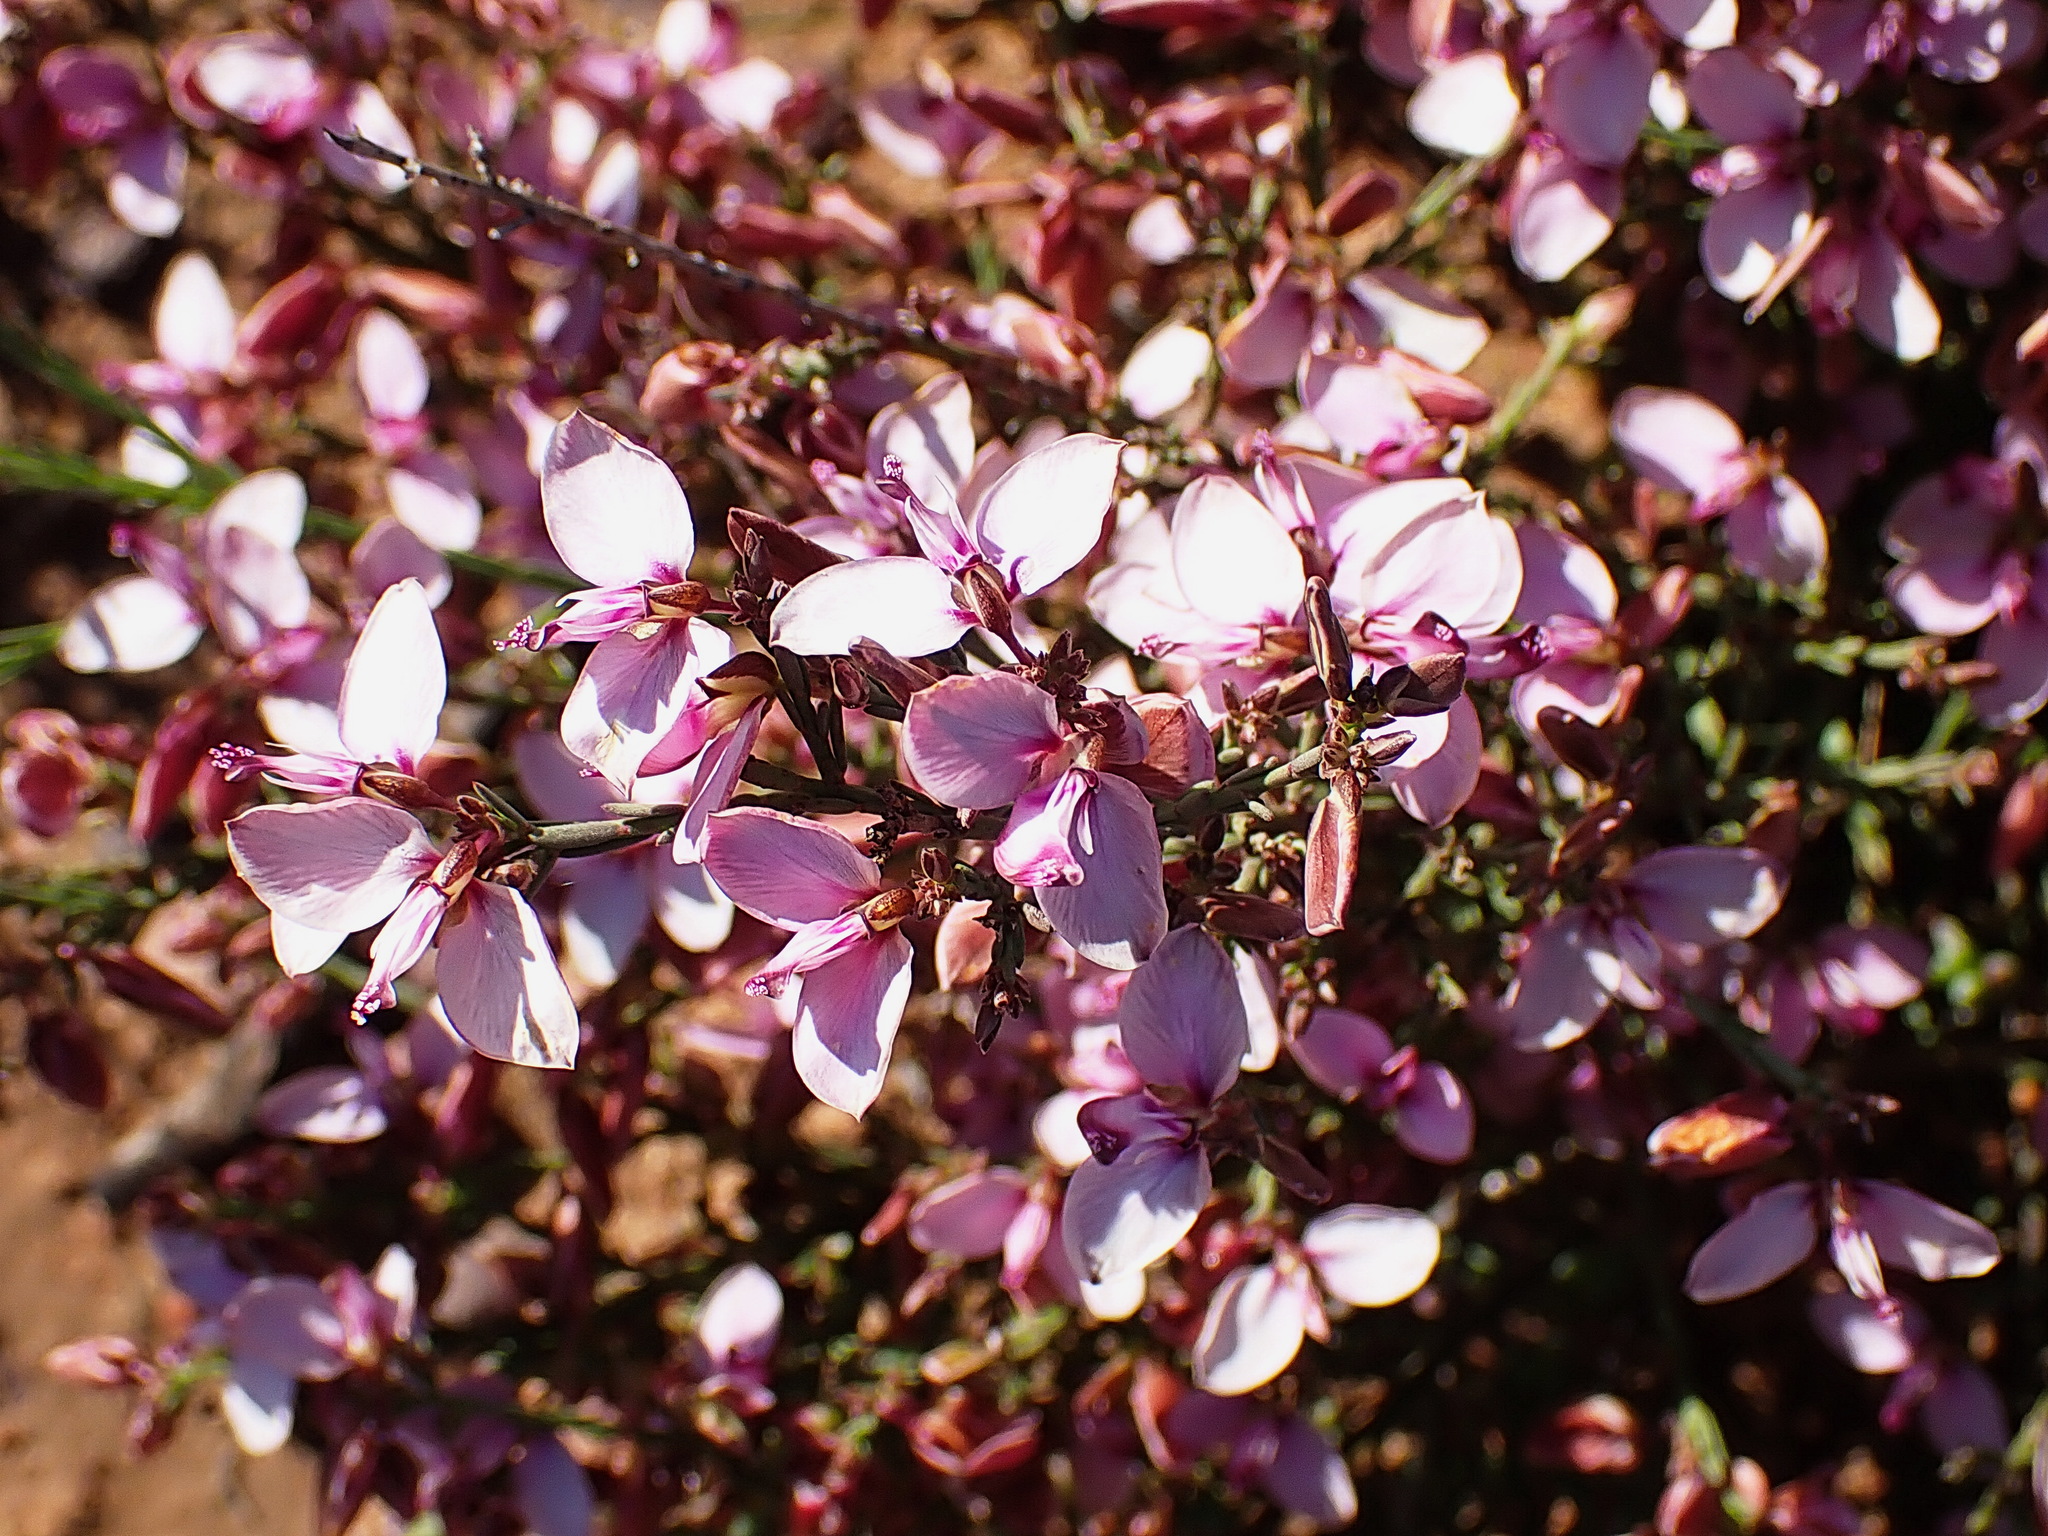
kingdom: Plantae
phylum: Tracheophyta
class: Magnoliopsida
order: Fabales
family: Polygalaceae
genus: Polygala
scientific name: Polygala microlopha
